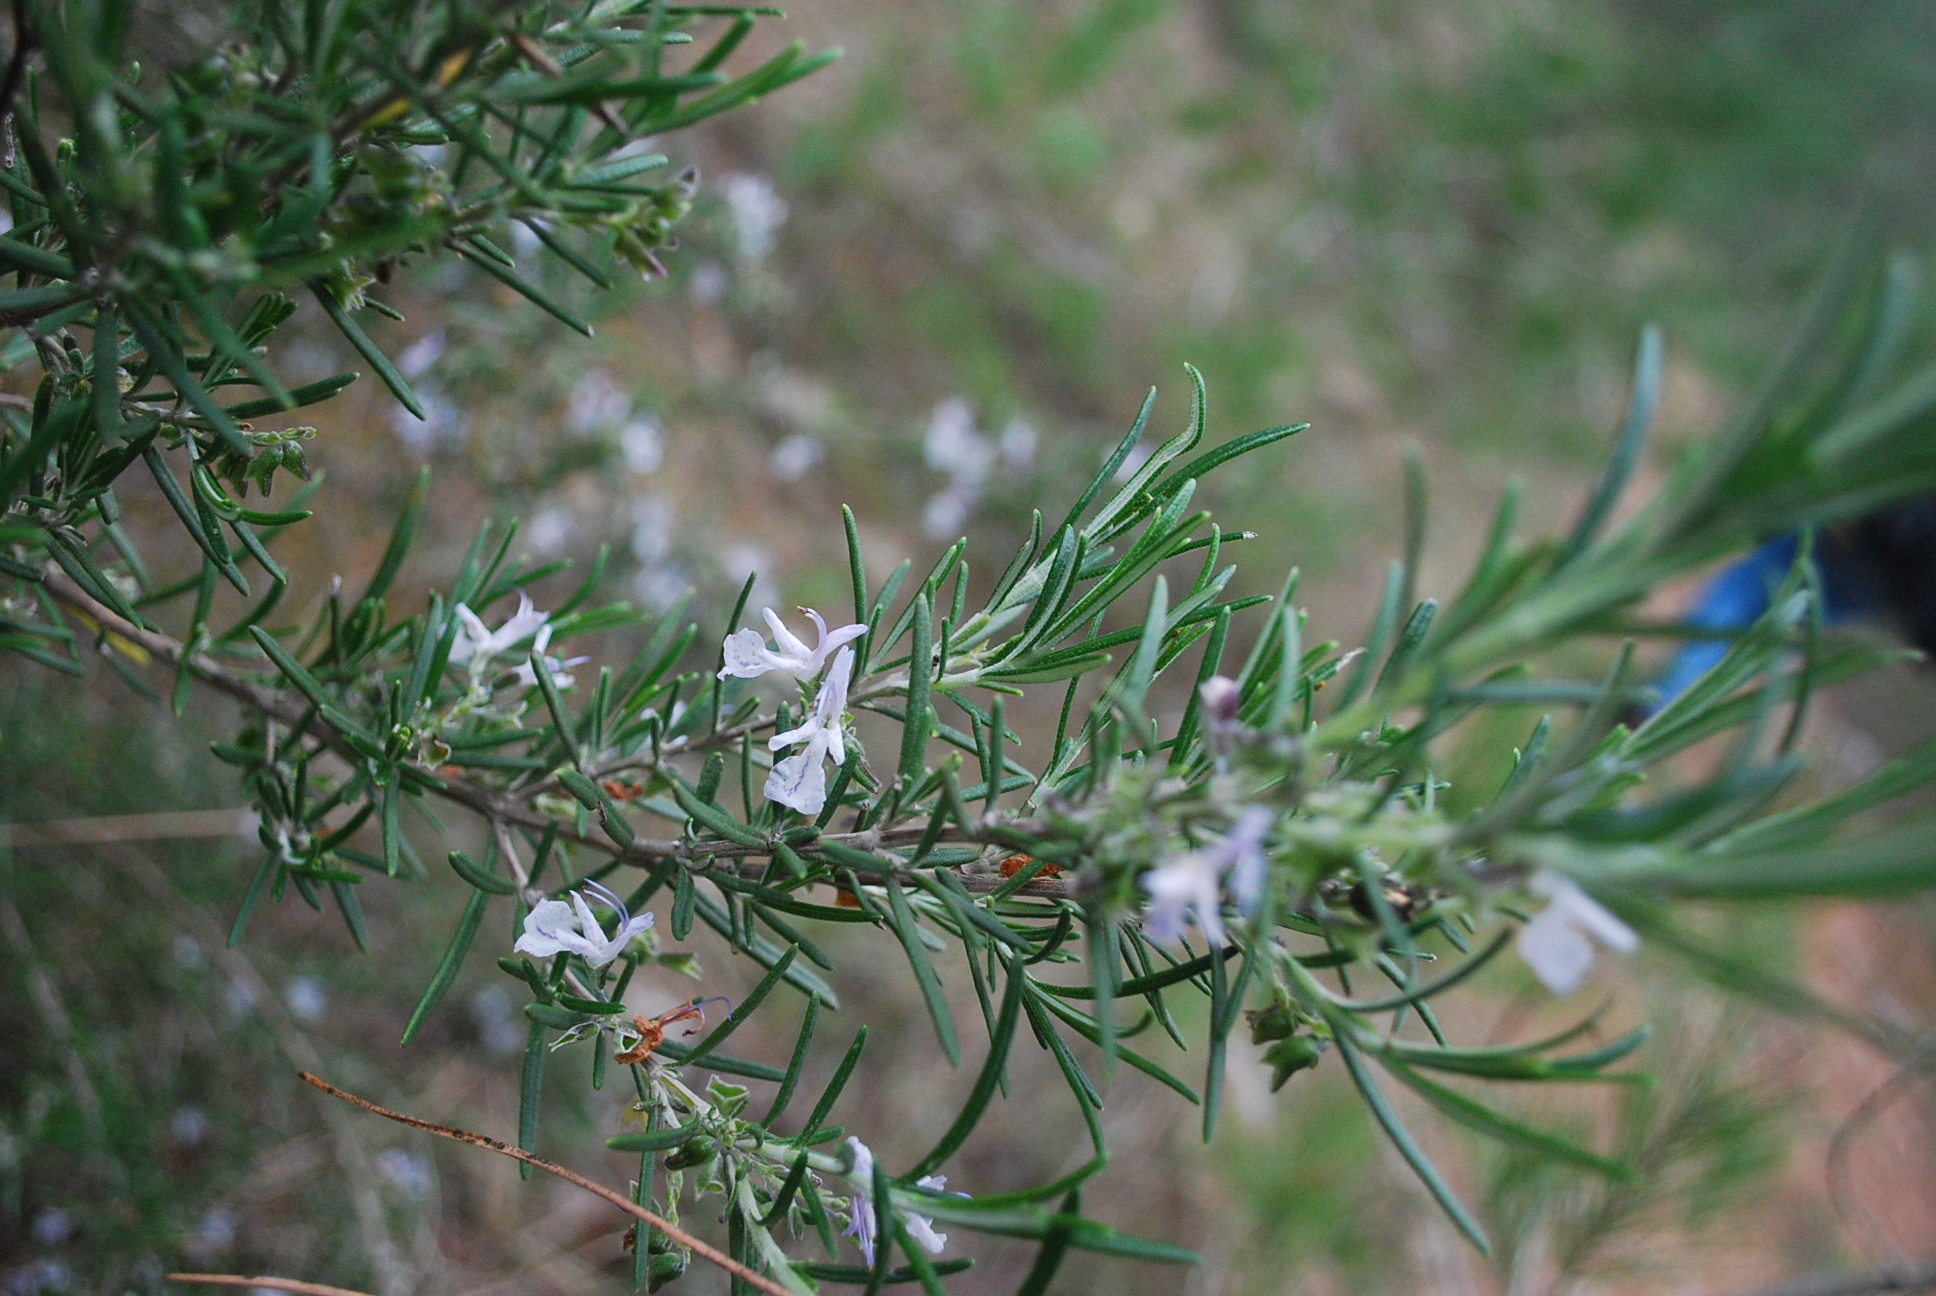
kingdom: Plantae
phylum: Tracheophyta
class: Magnoliopsida
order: Lamiales
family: Lamiaceae
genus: Salvia
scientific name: Salvia rosmarinus
